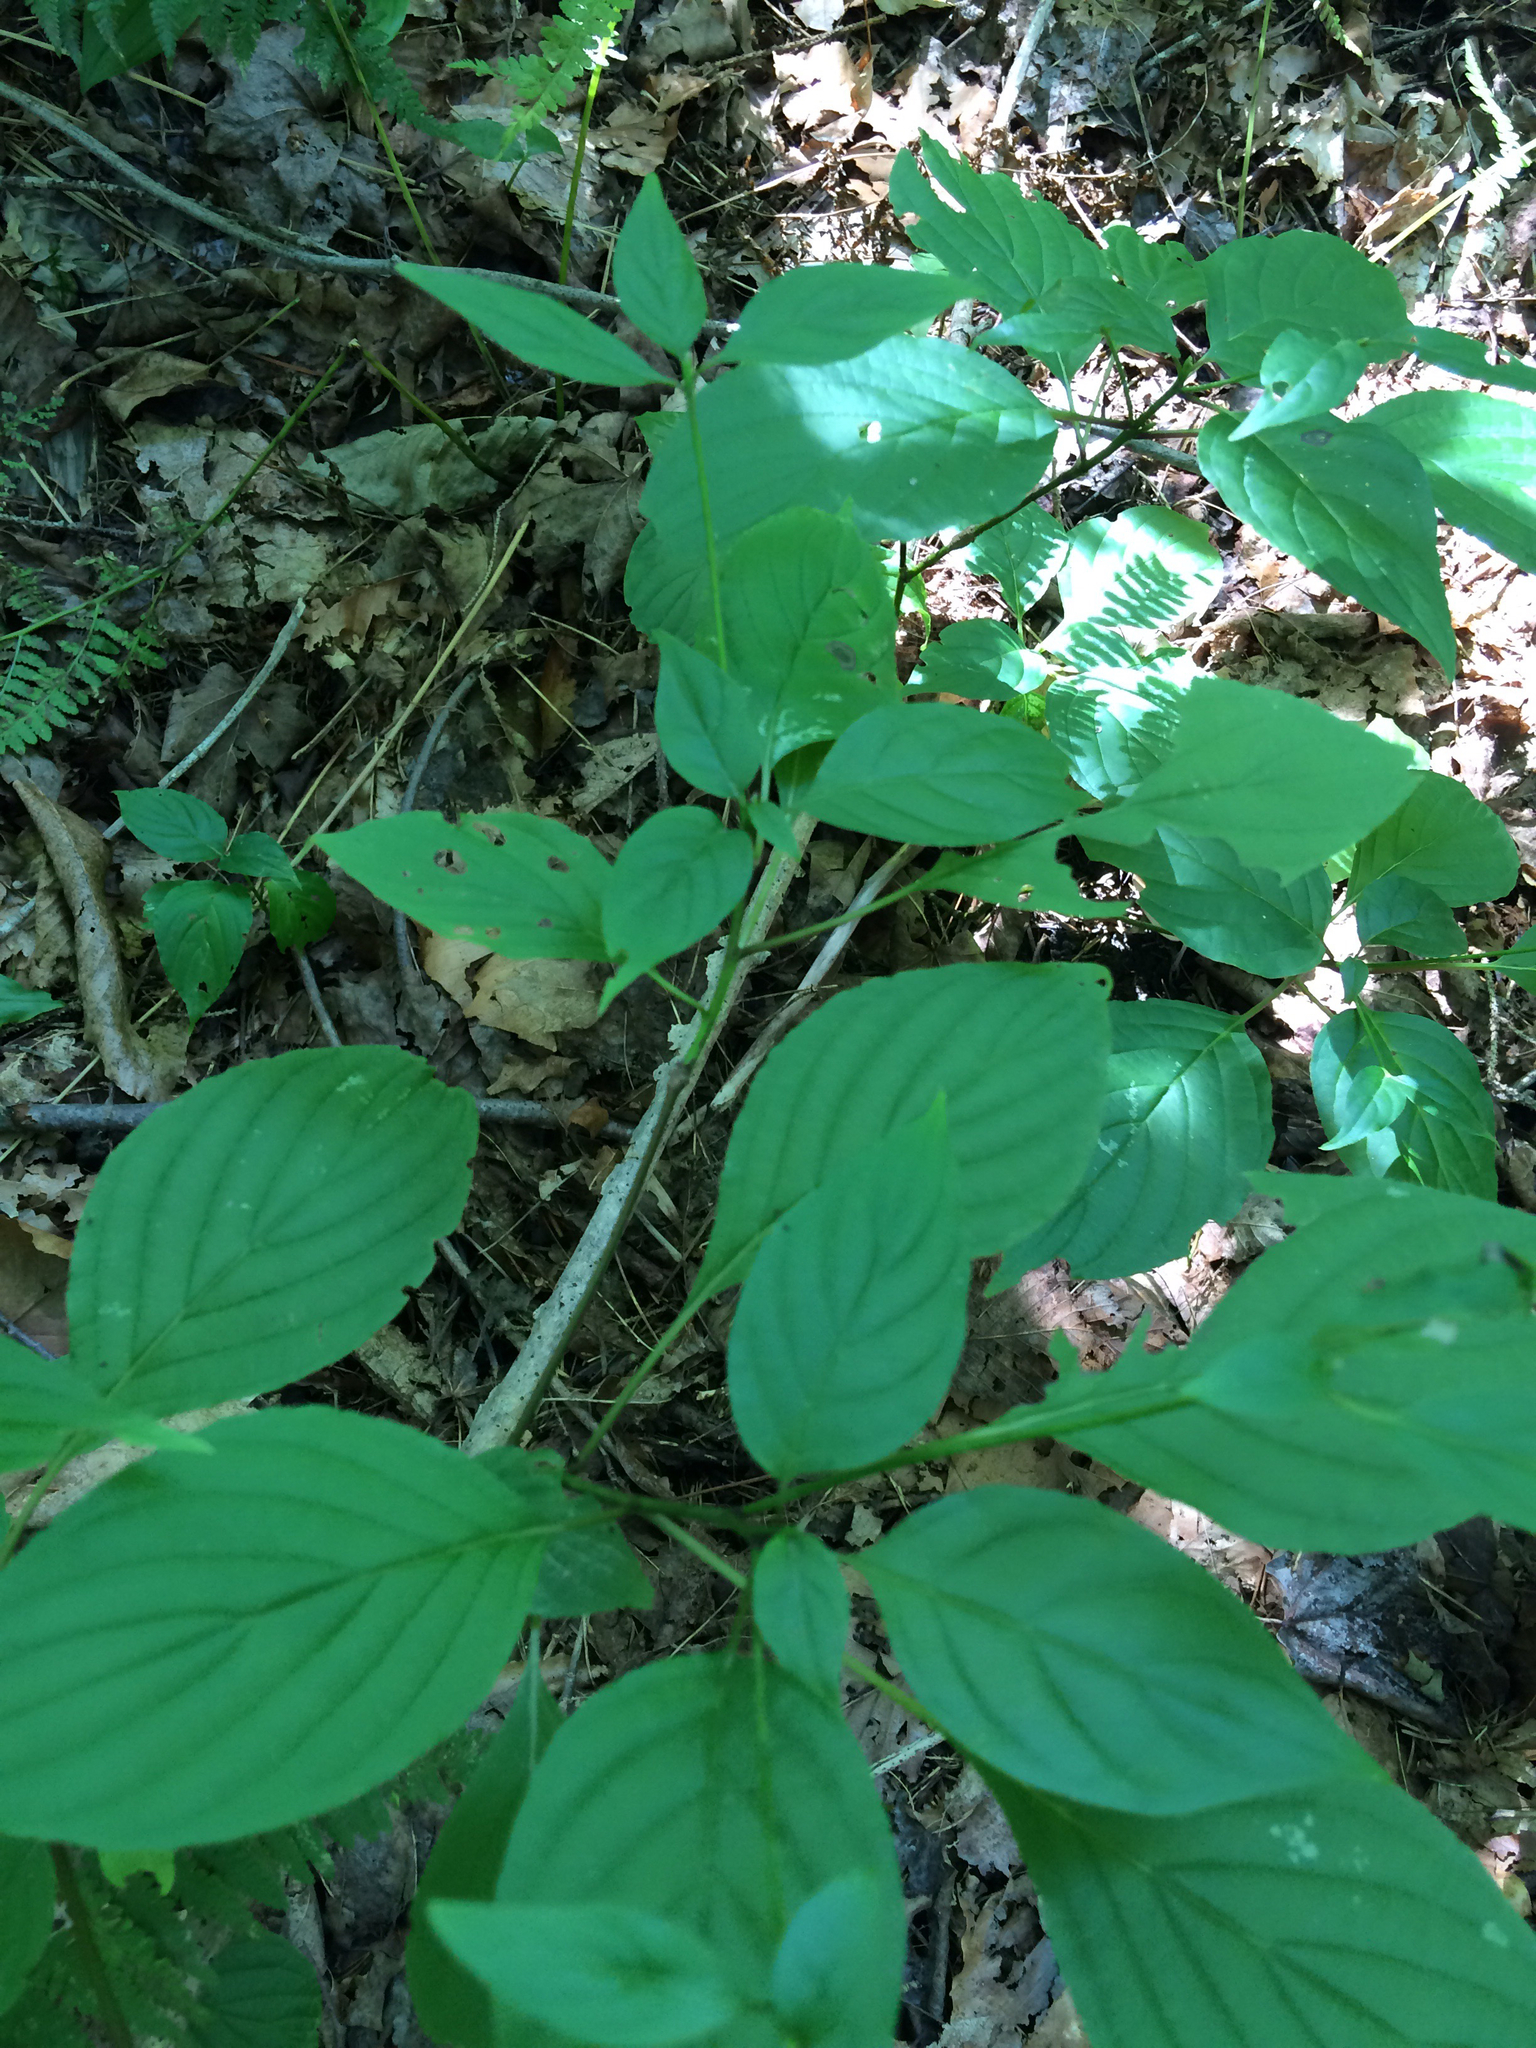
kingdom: Plantae
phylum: Tracheophyta
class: Magnoliopsida
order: Cornales
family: Cornaceae
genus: Cornus
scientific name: Cornus alternifolia
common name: Pagoda dogwood
